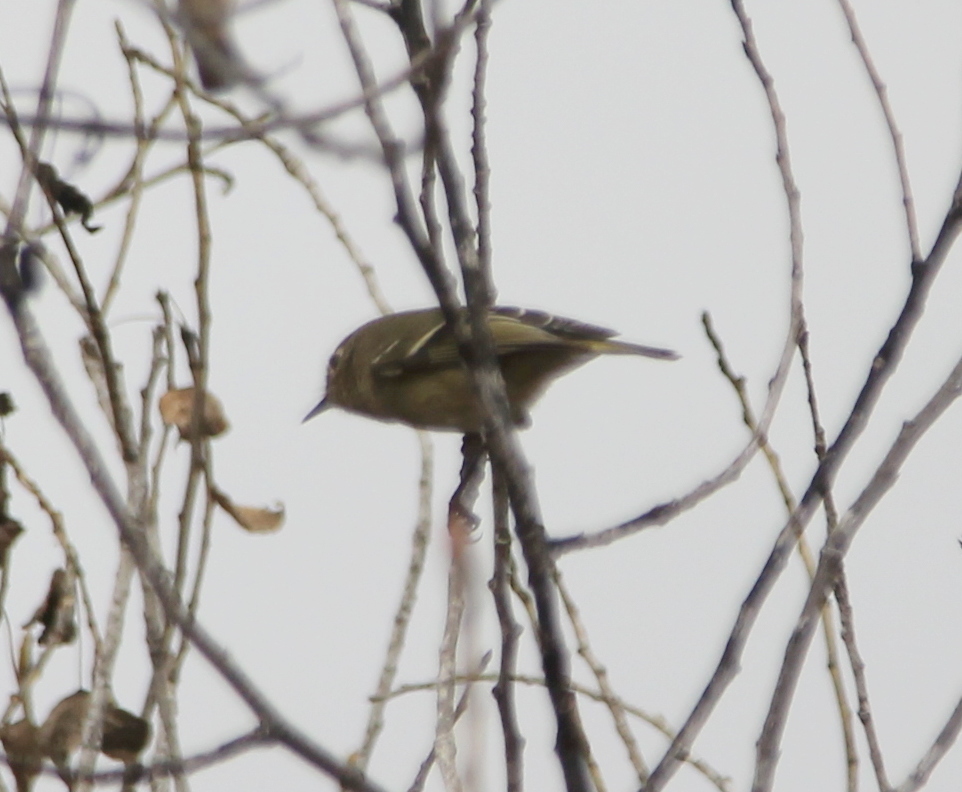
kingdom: Animalia
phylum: Chordata
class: Aves
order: Passeriformes
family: Regulidae
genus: Regulus
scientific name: Regulus calendula
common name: Ruby-crowned kinglet
